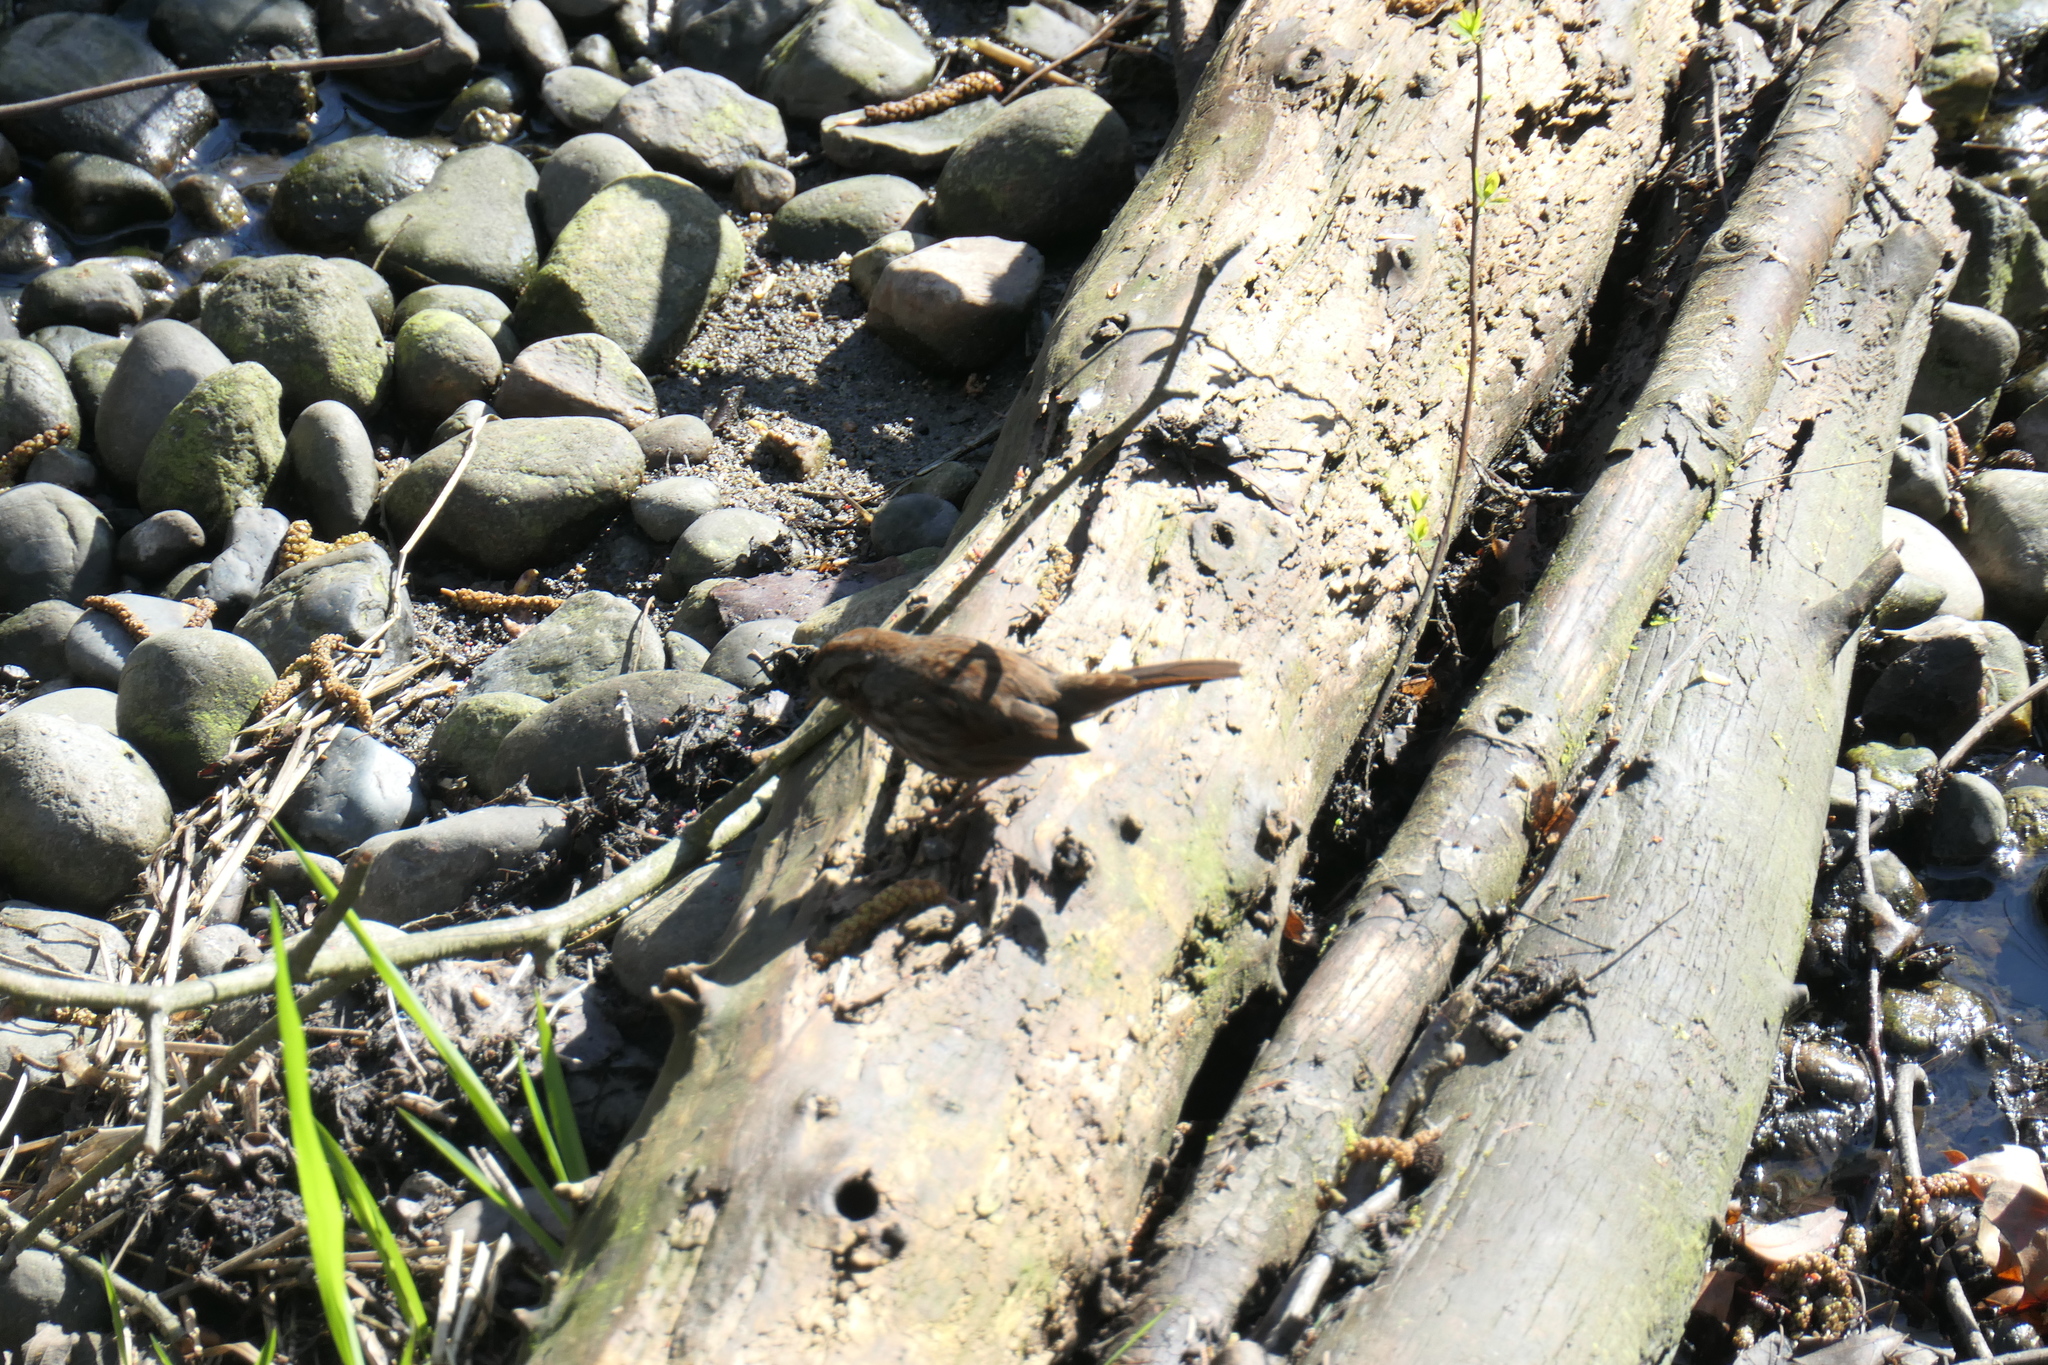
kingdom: Animalia
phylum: Chordata
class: Aves
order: Passeriformes
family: Passerellidae
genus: Melospiza
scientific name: Melospiza melodia
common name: Song sparrow
